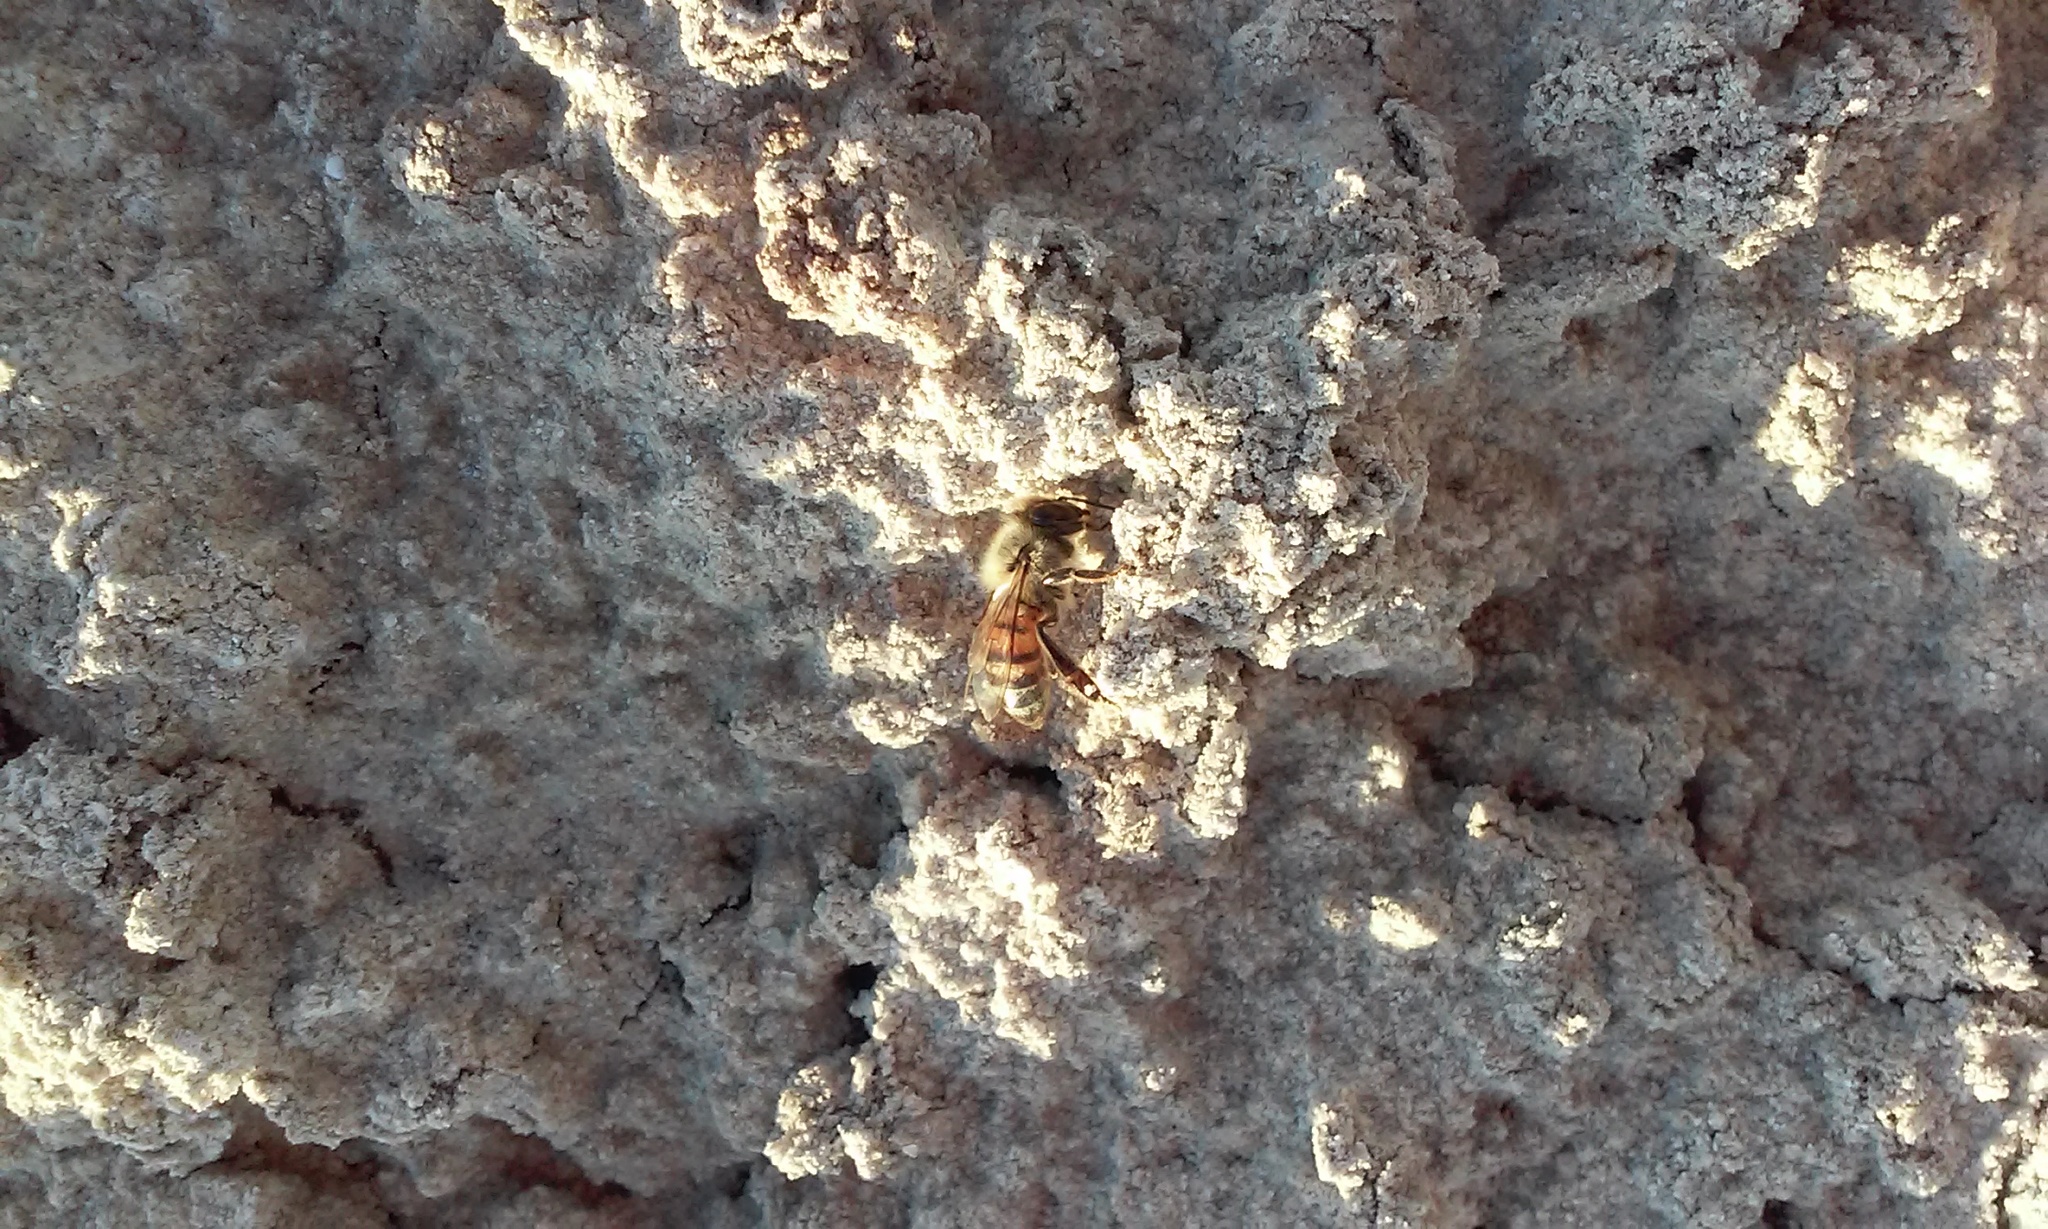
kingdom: Animalia
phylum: Arthropoda
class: Insecta
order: Hymenoptera
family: Apidae
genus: Apis
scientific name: Apis mellifera
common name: Honey bee
